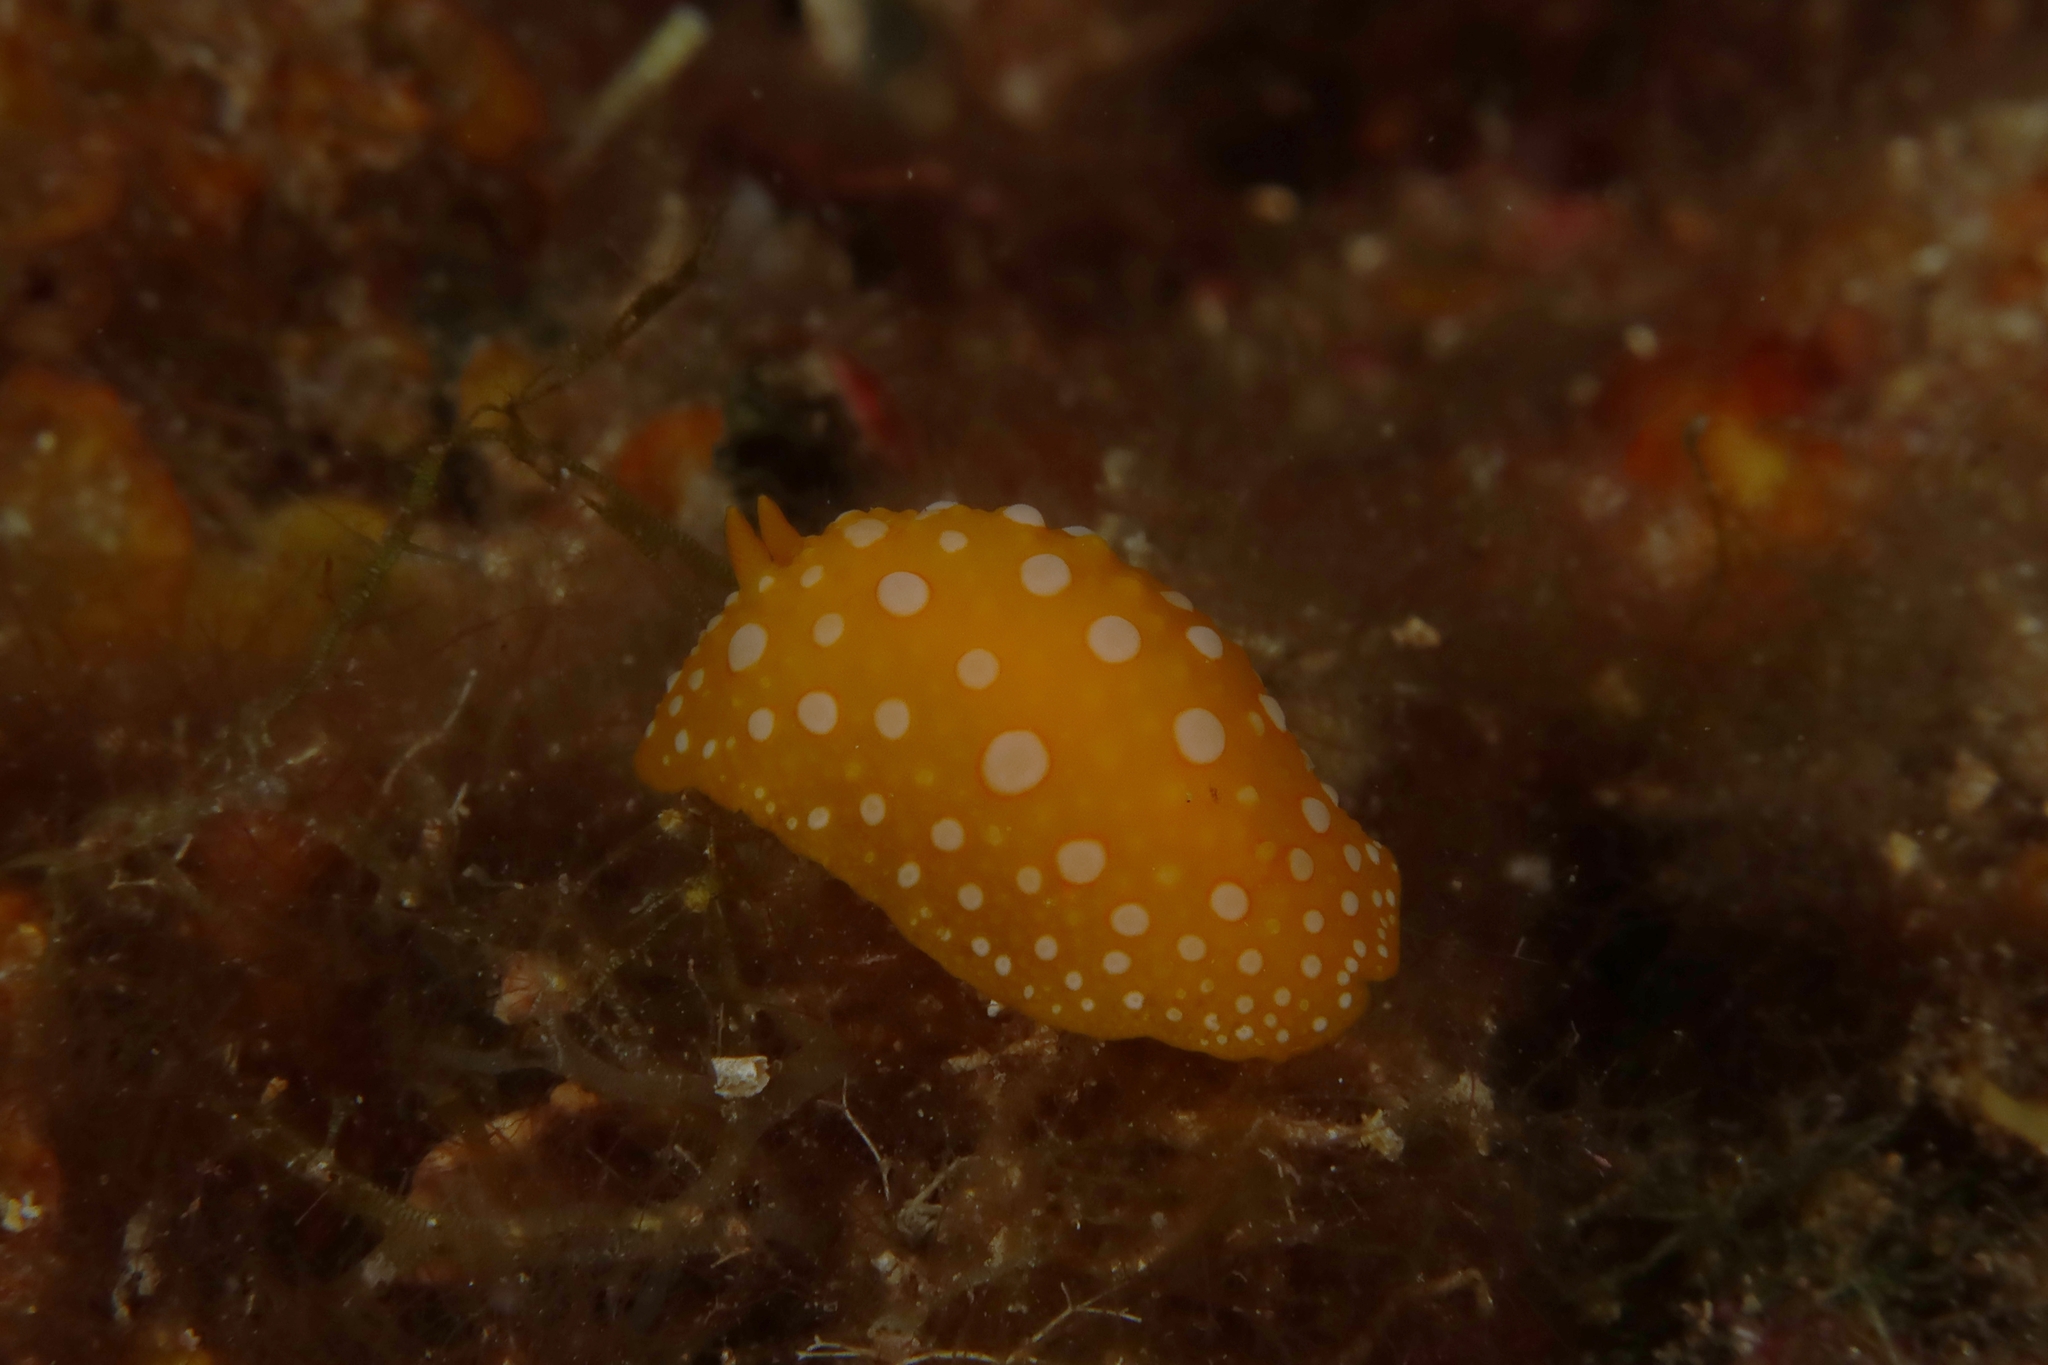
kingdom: Animalia
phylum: Mollusca
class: Gastropoda
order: Nudibranchia
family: Phyllidiidae
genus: Phyllidia
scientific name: Phyllidia flava
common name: White-spotted yellow nudibranch
